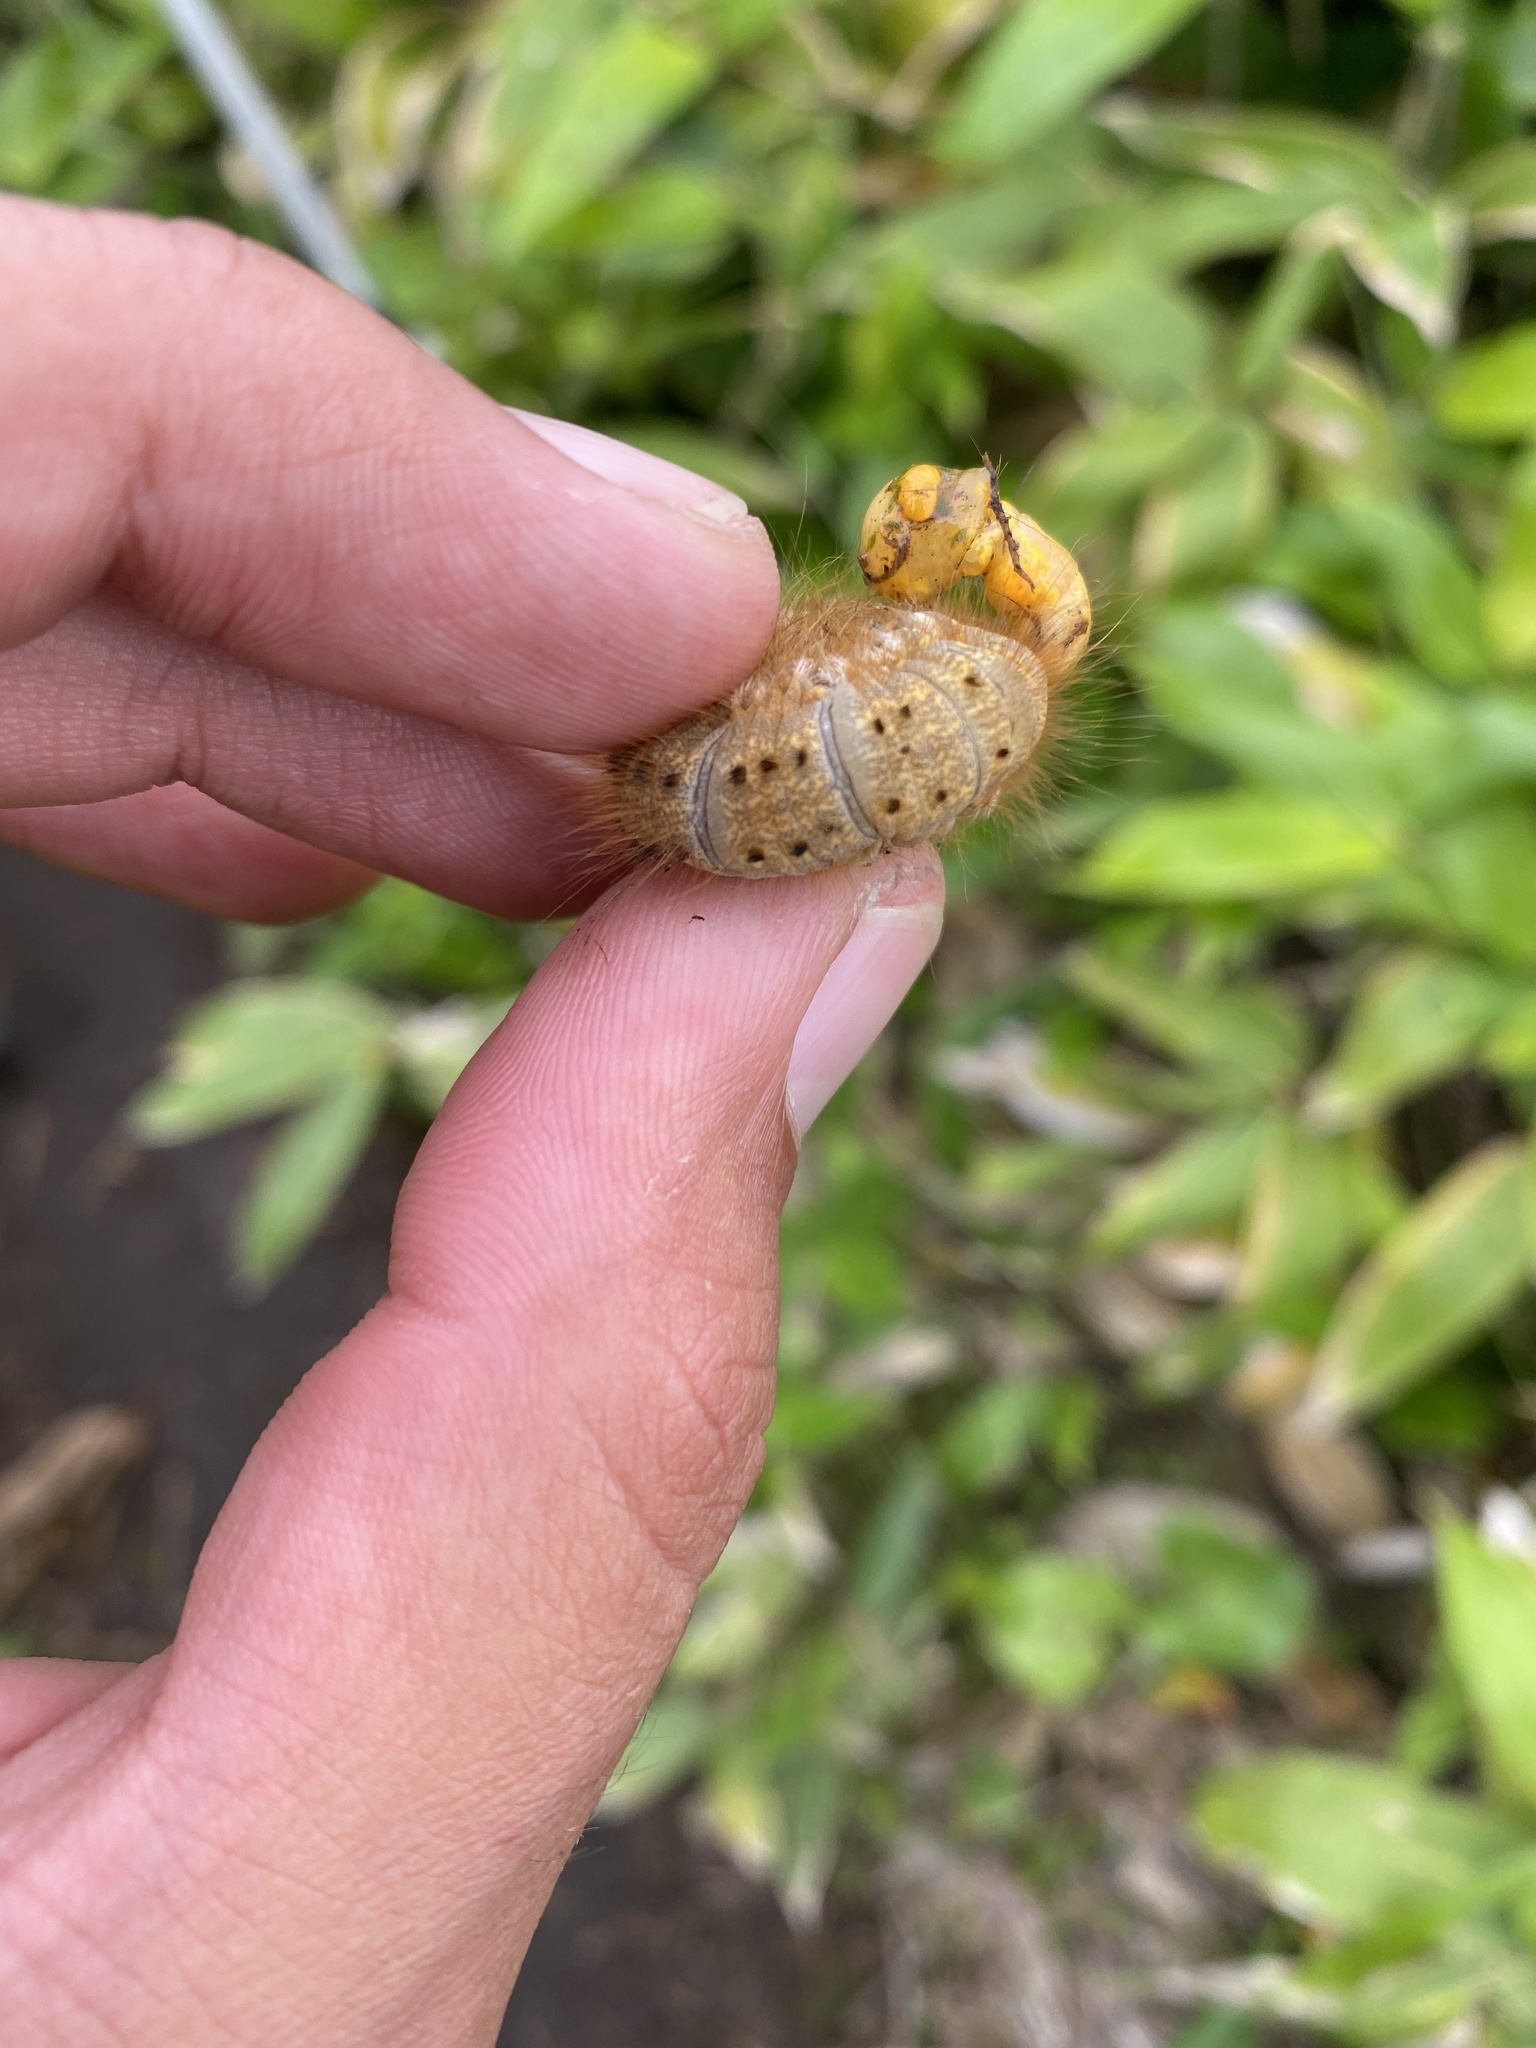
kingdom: Animalia
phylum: Arthropoda
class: Insecta
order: Lepidoptera
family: Lasiocampidae
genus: Euthrix
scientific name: Euthrix potatoria
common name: Drinker
